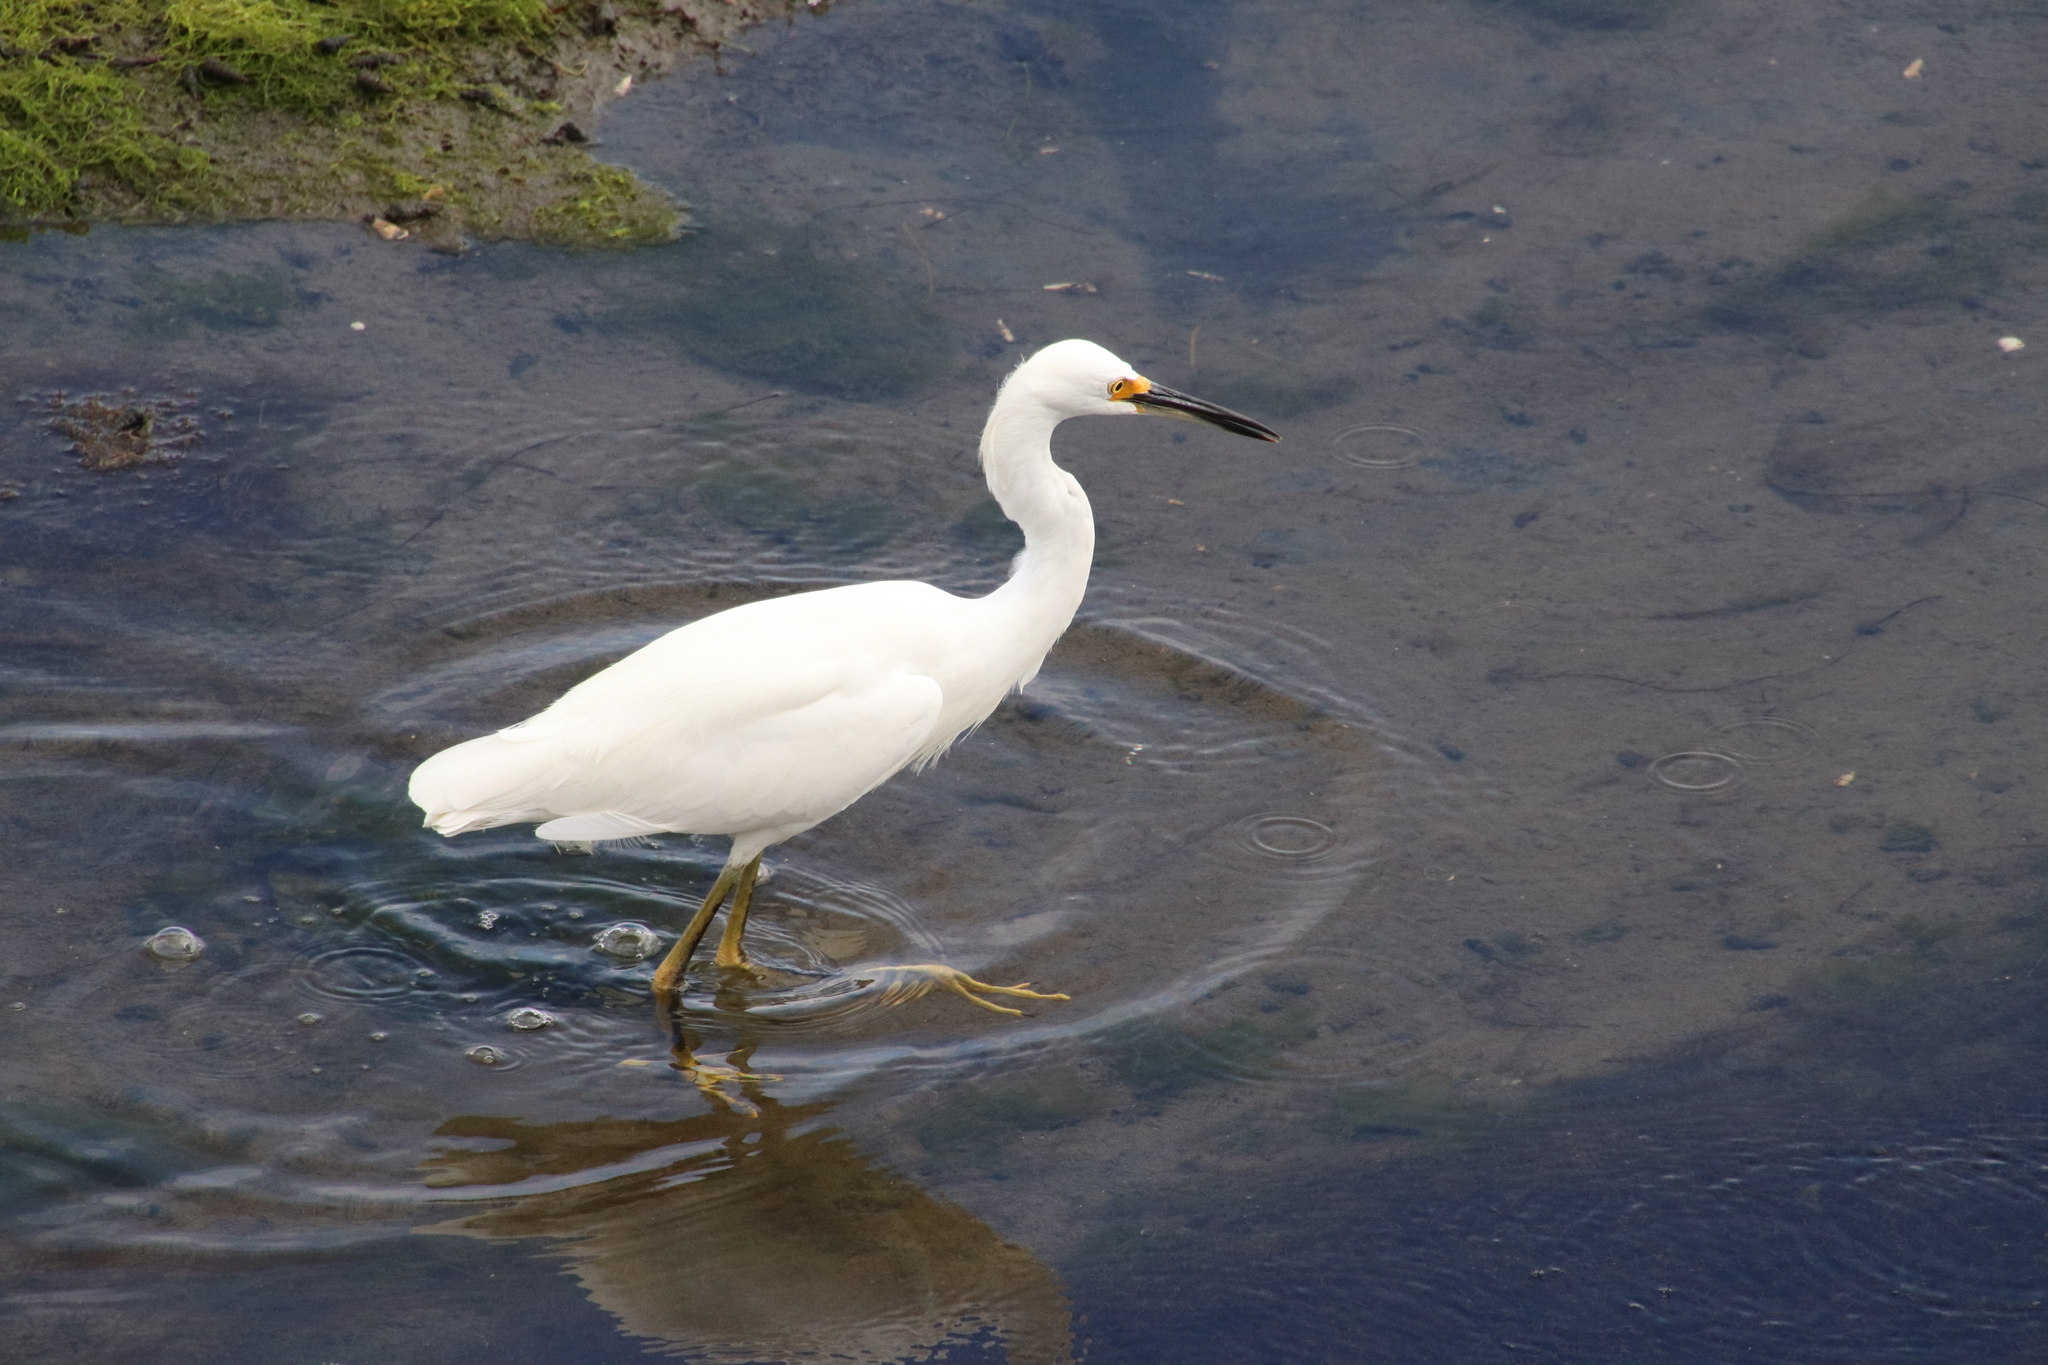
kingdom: Animalia
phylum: Chordata
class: Aves
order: Pelecaniformes
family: Ardeidae
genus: Egretta
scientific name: Egretta thula
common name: Snowy egret
